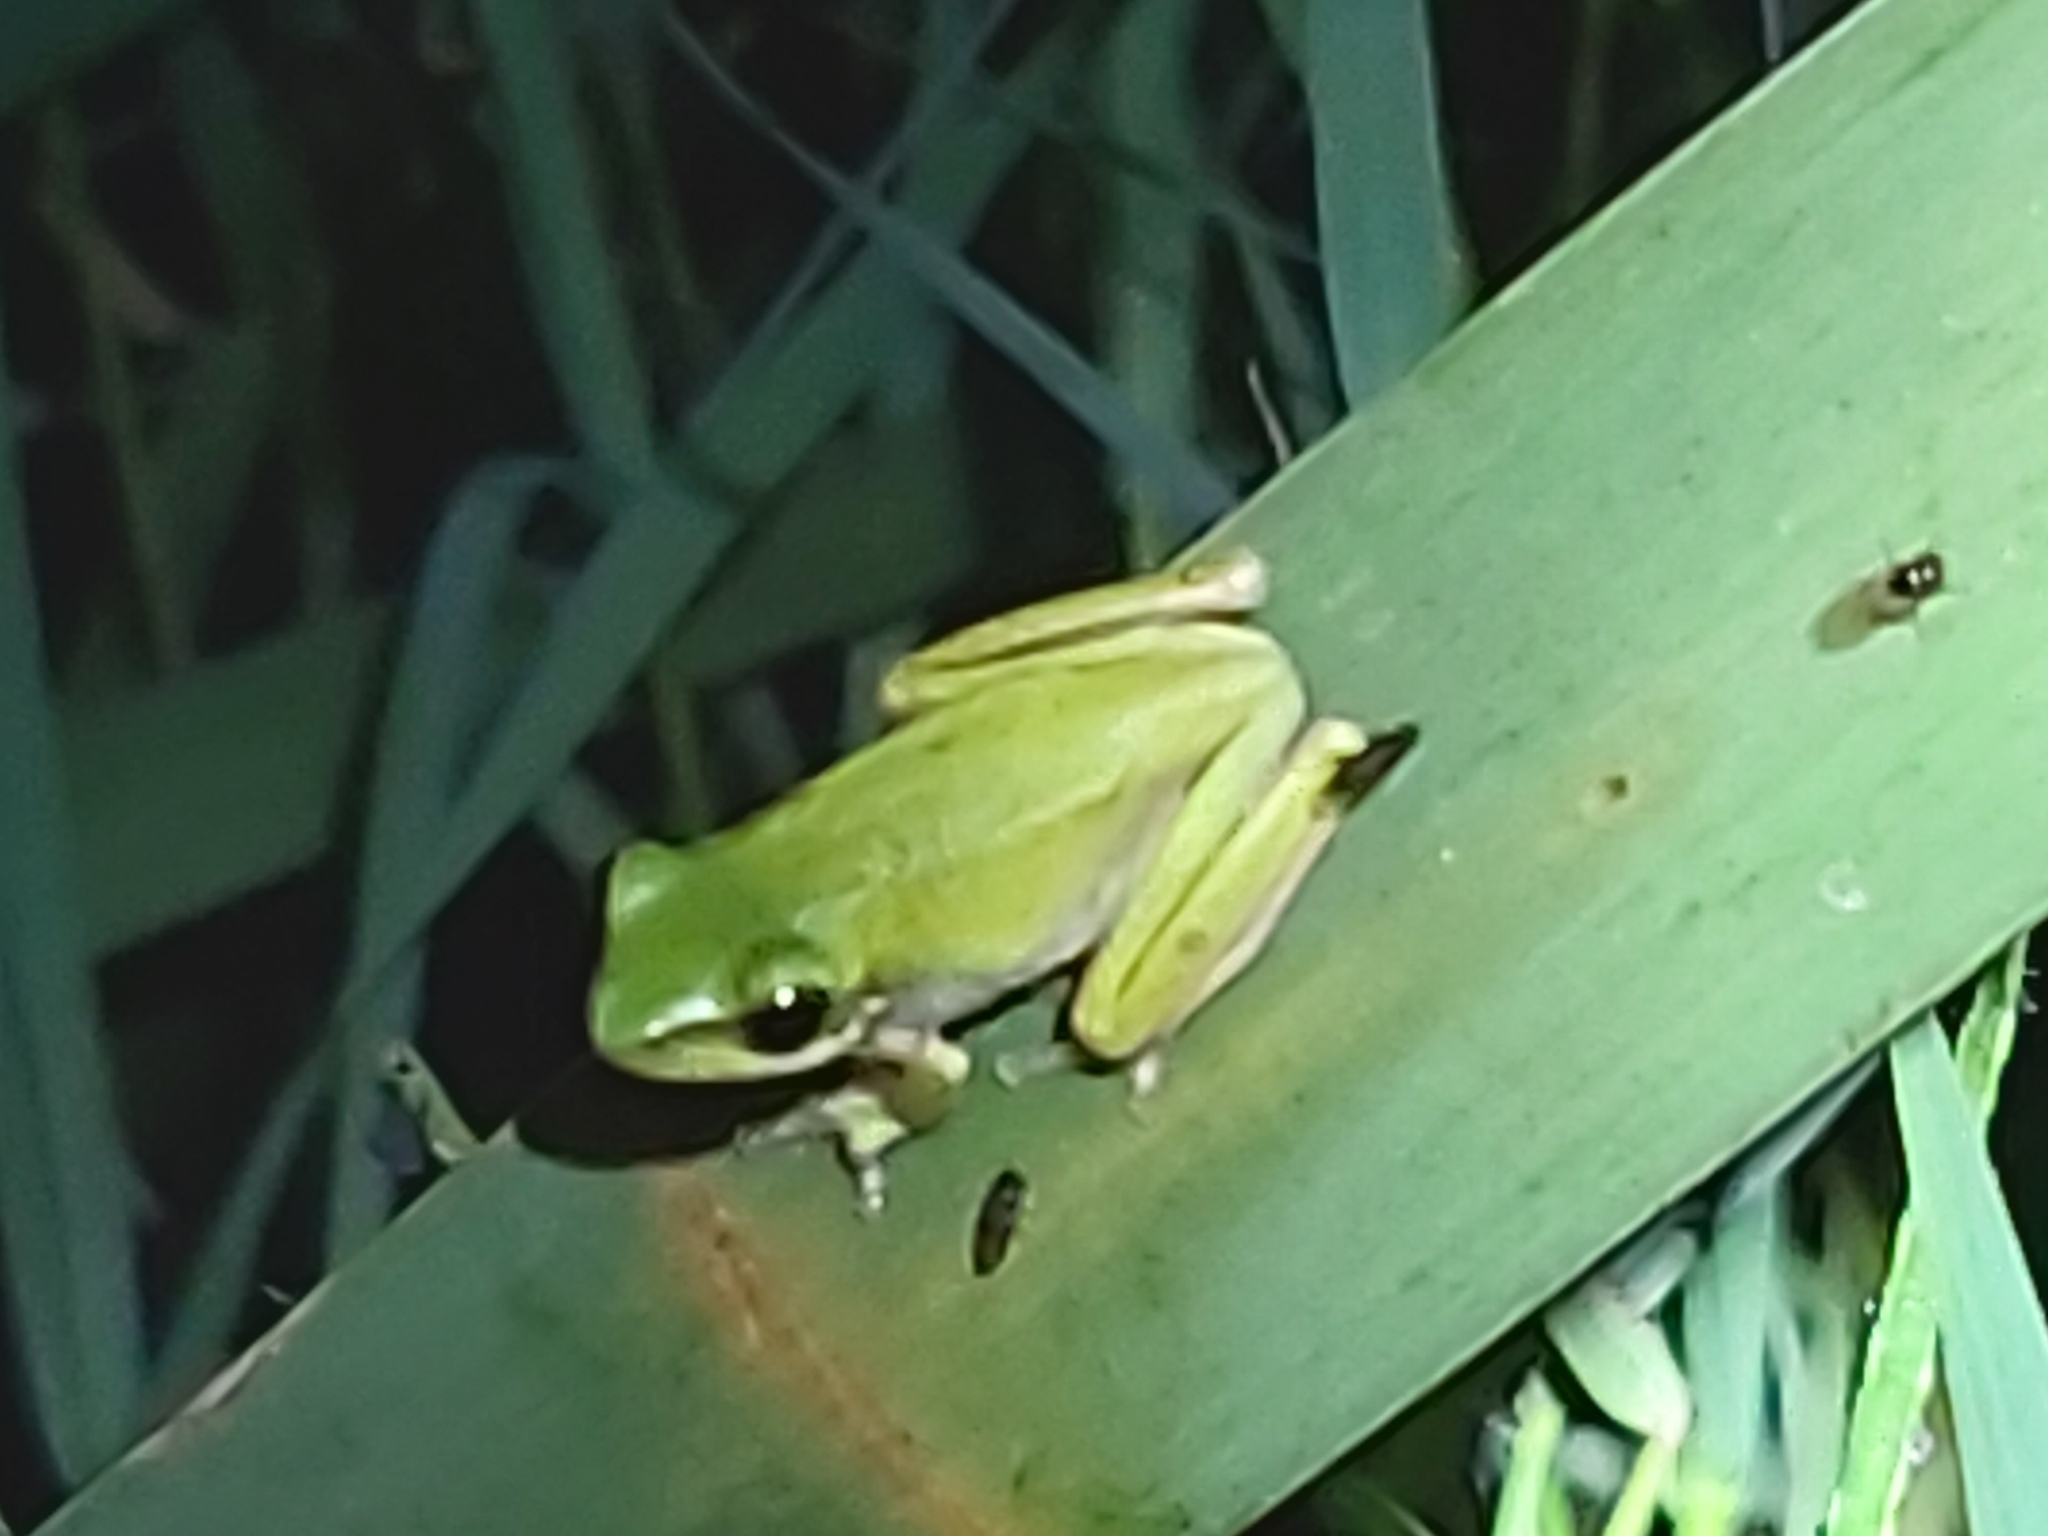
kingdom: Animalia
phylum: Chordata
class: Amphibia
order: Anura
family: Pelodryadidae
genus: Litoria
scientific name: Litoria fallax
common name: Eastern dwarf treefrog
